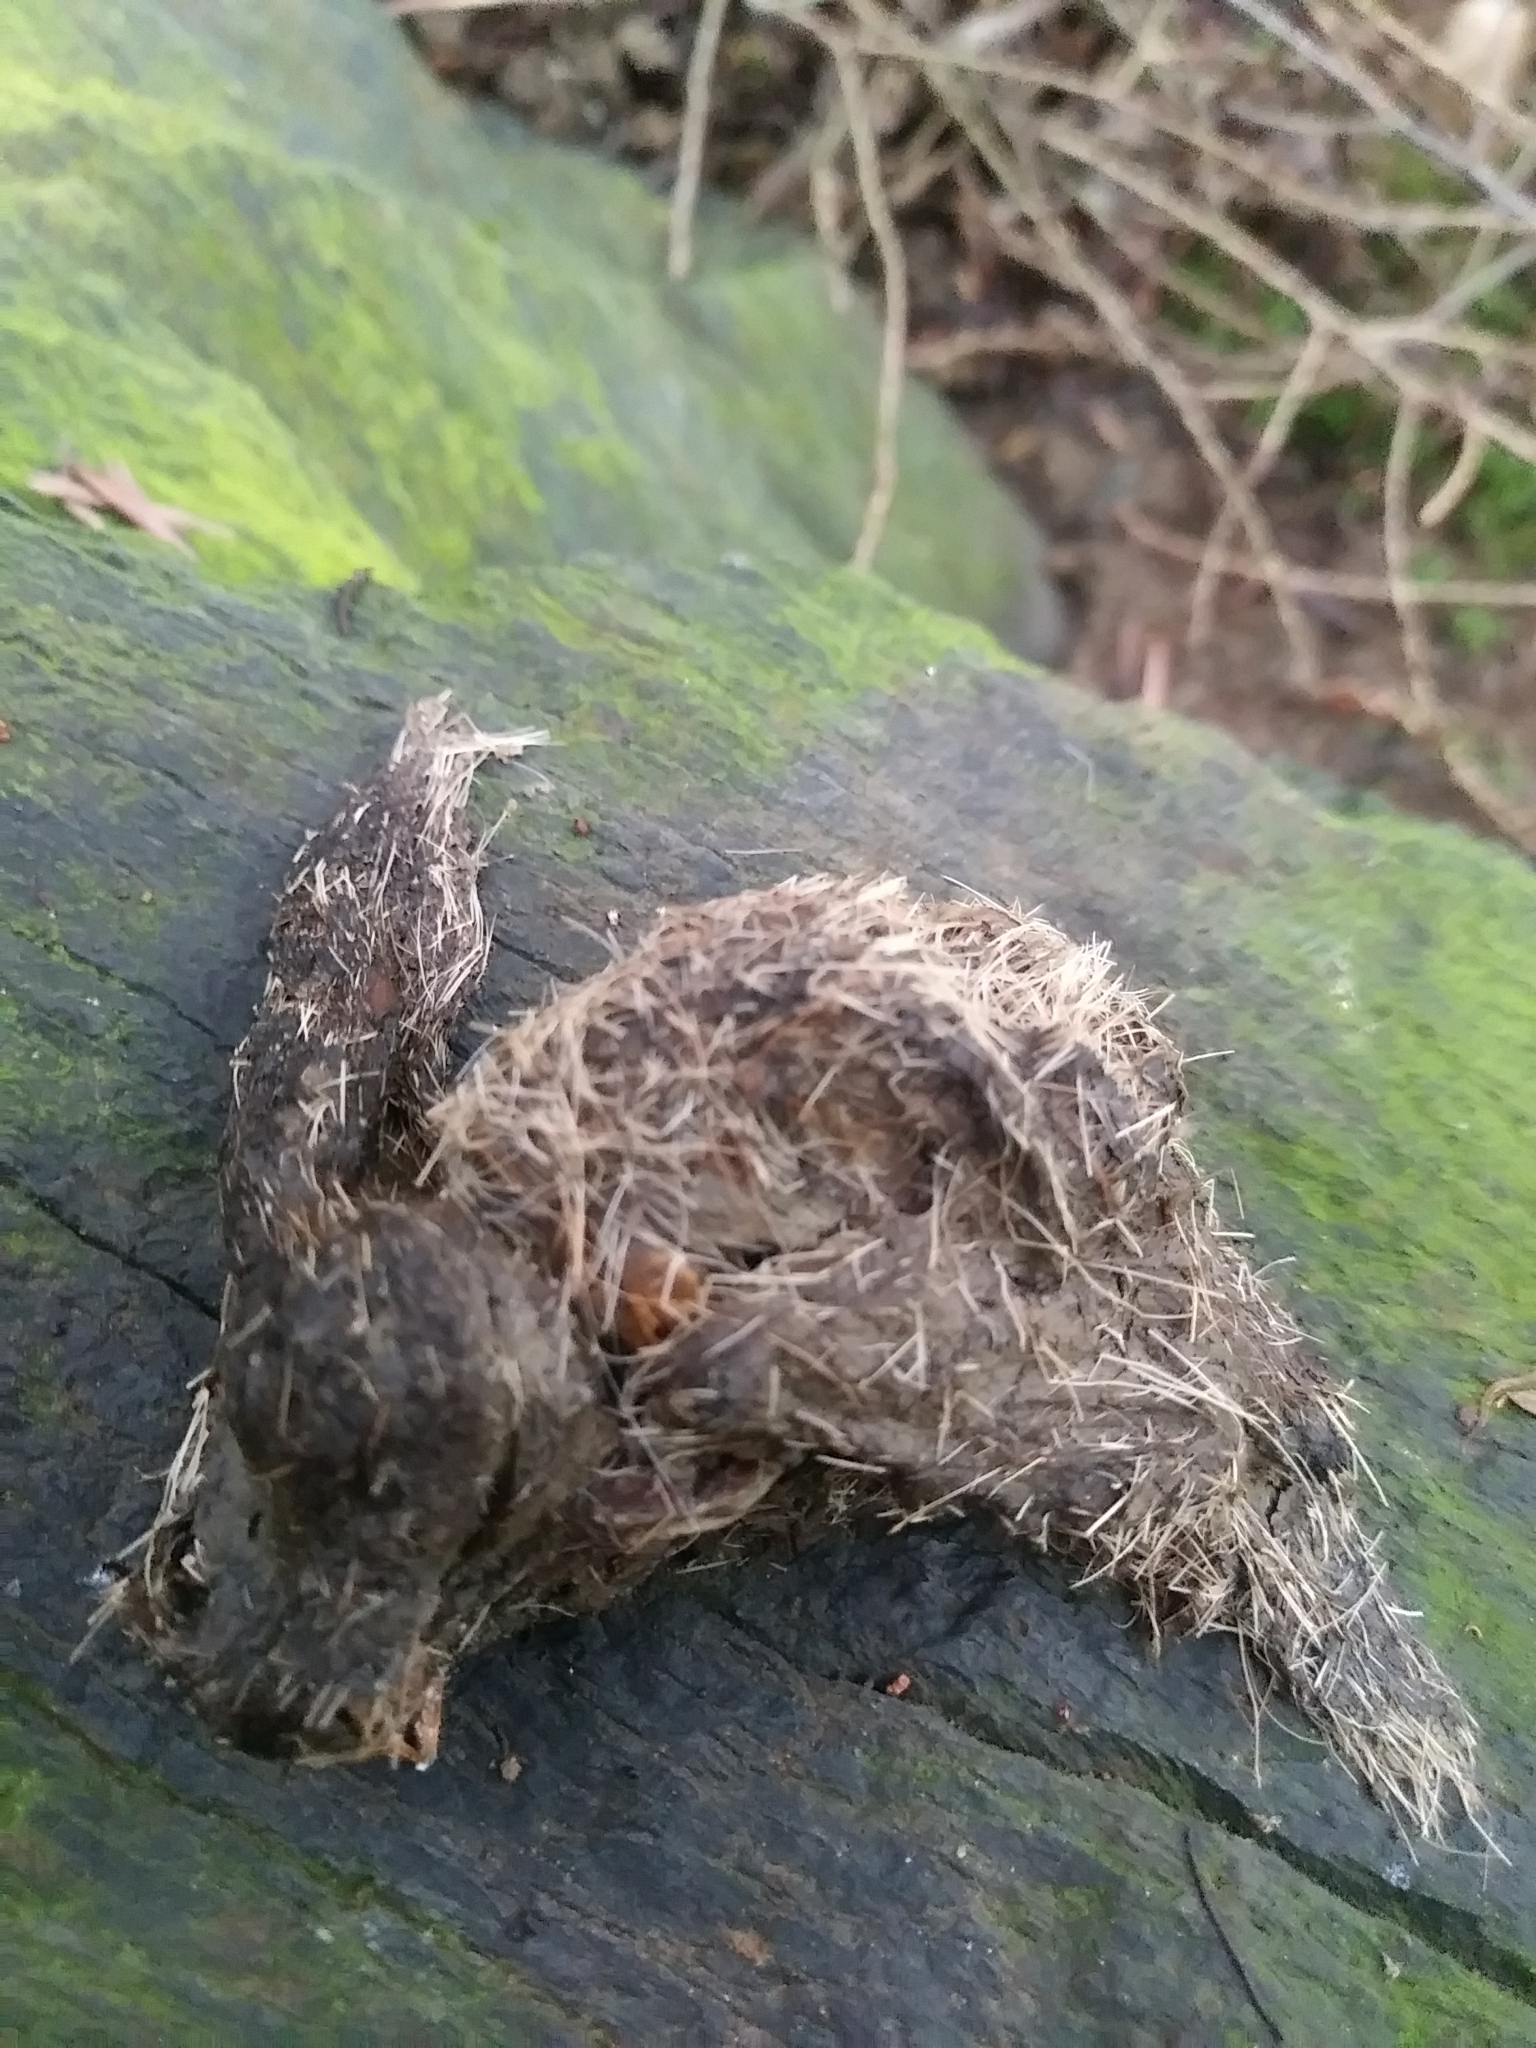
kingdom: Animalia
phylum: Chordata
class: Mammalia
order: Carnivora
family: Canidae
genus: Canis
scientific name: Canis latrans
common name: Coyote
